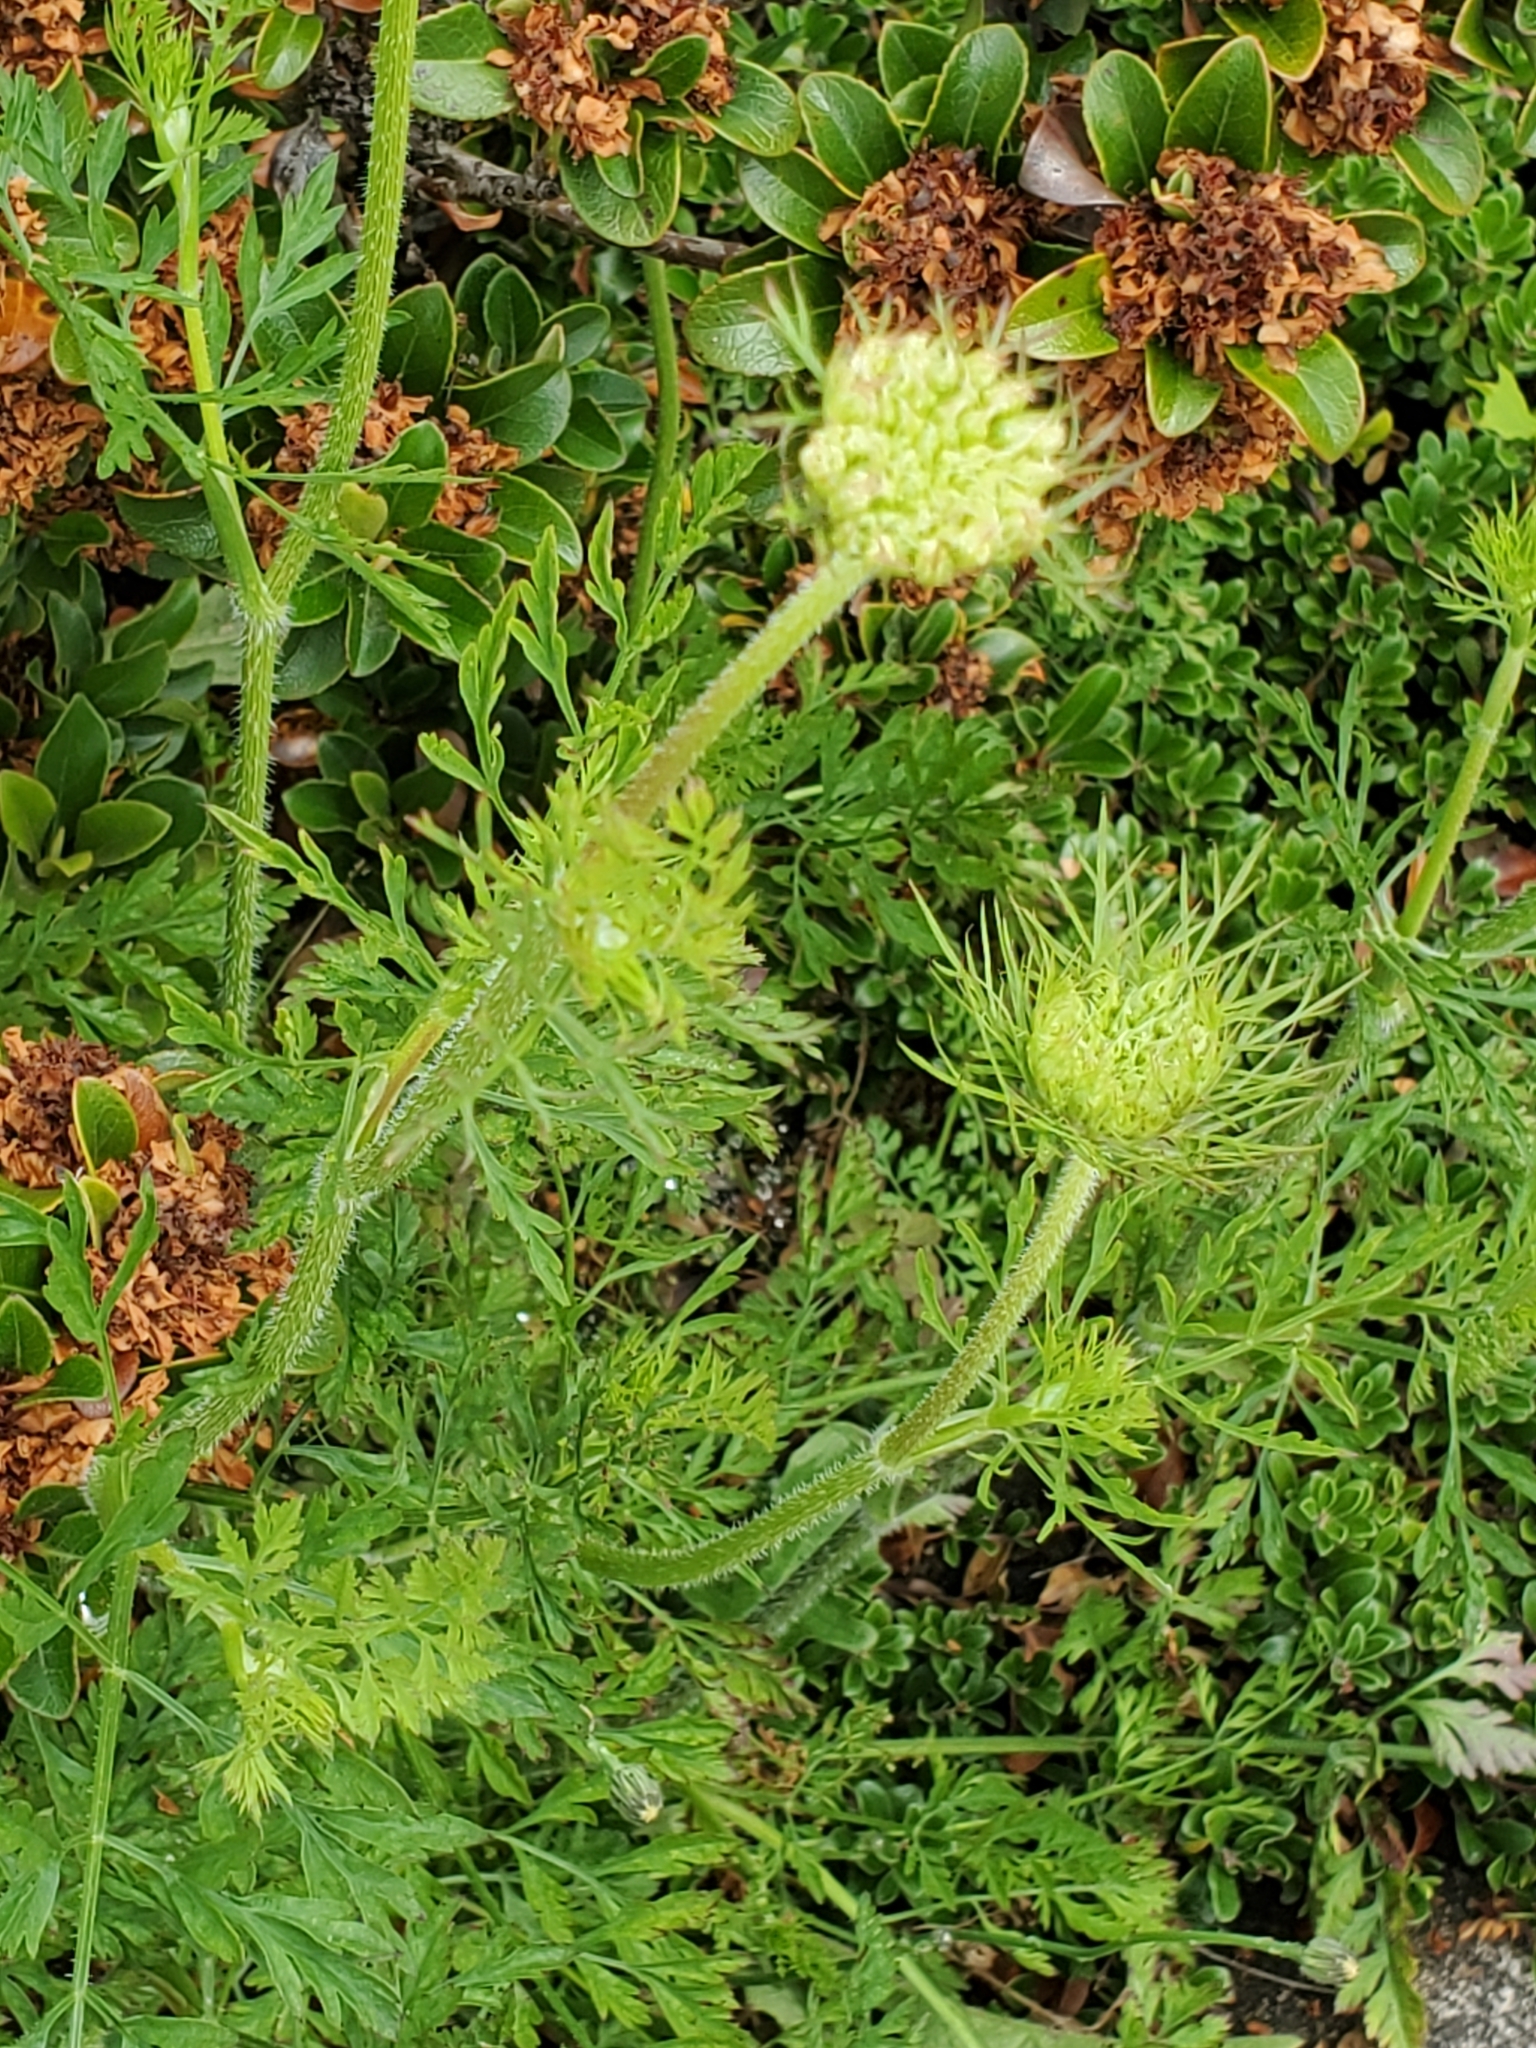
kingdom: Plantae
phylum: Tracheophyta
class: Magnoliopsida
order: Apiales
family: Apiaceae
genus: Daucus
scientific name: Daucus carota
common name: Wild carrot
